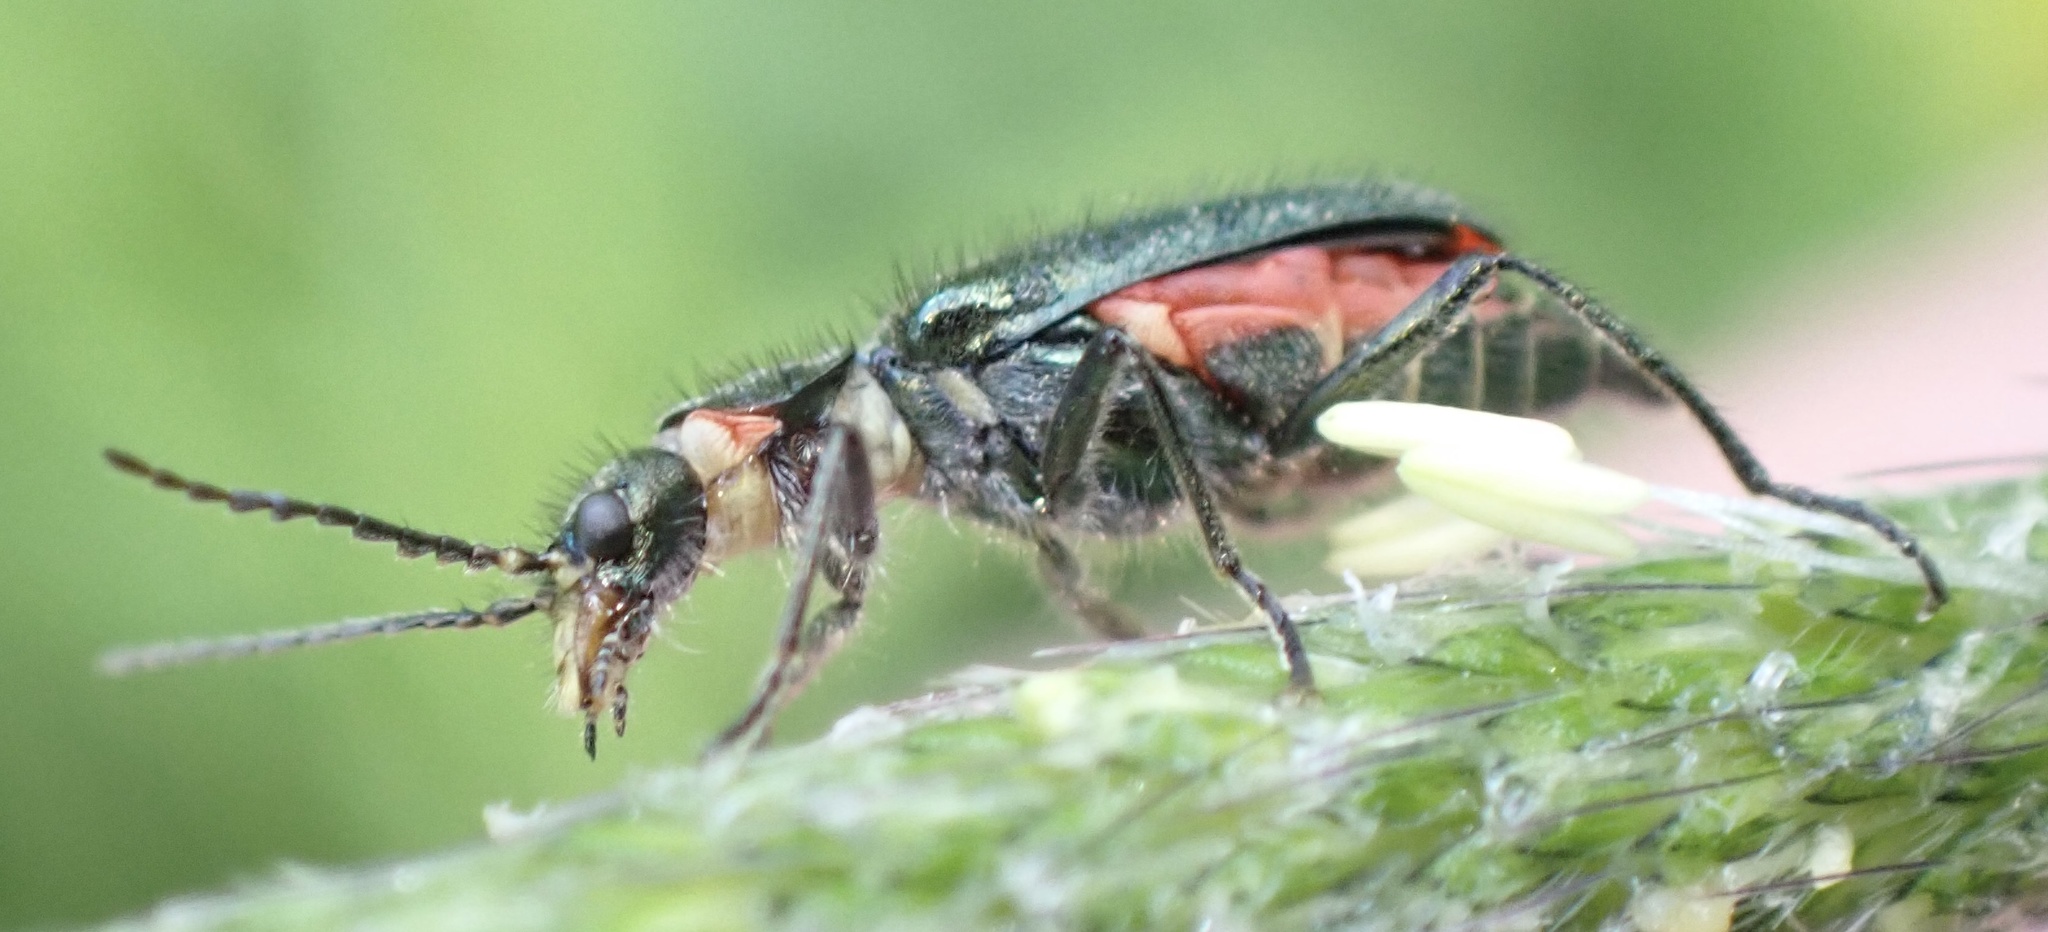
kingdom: Animalia
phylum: Arthropoda
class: Insecta
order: Coleoptera
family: Melyridae
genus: Malachius
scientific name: Malachius bipustulatus
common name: Malachite beetle
